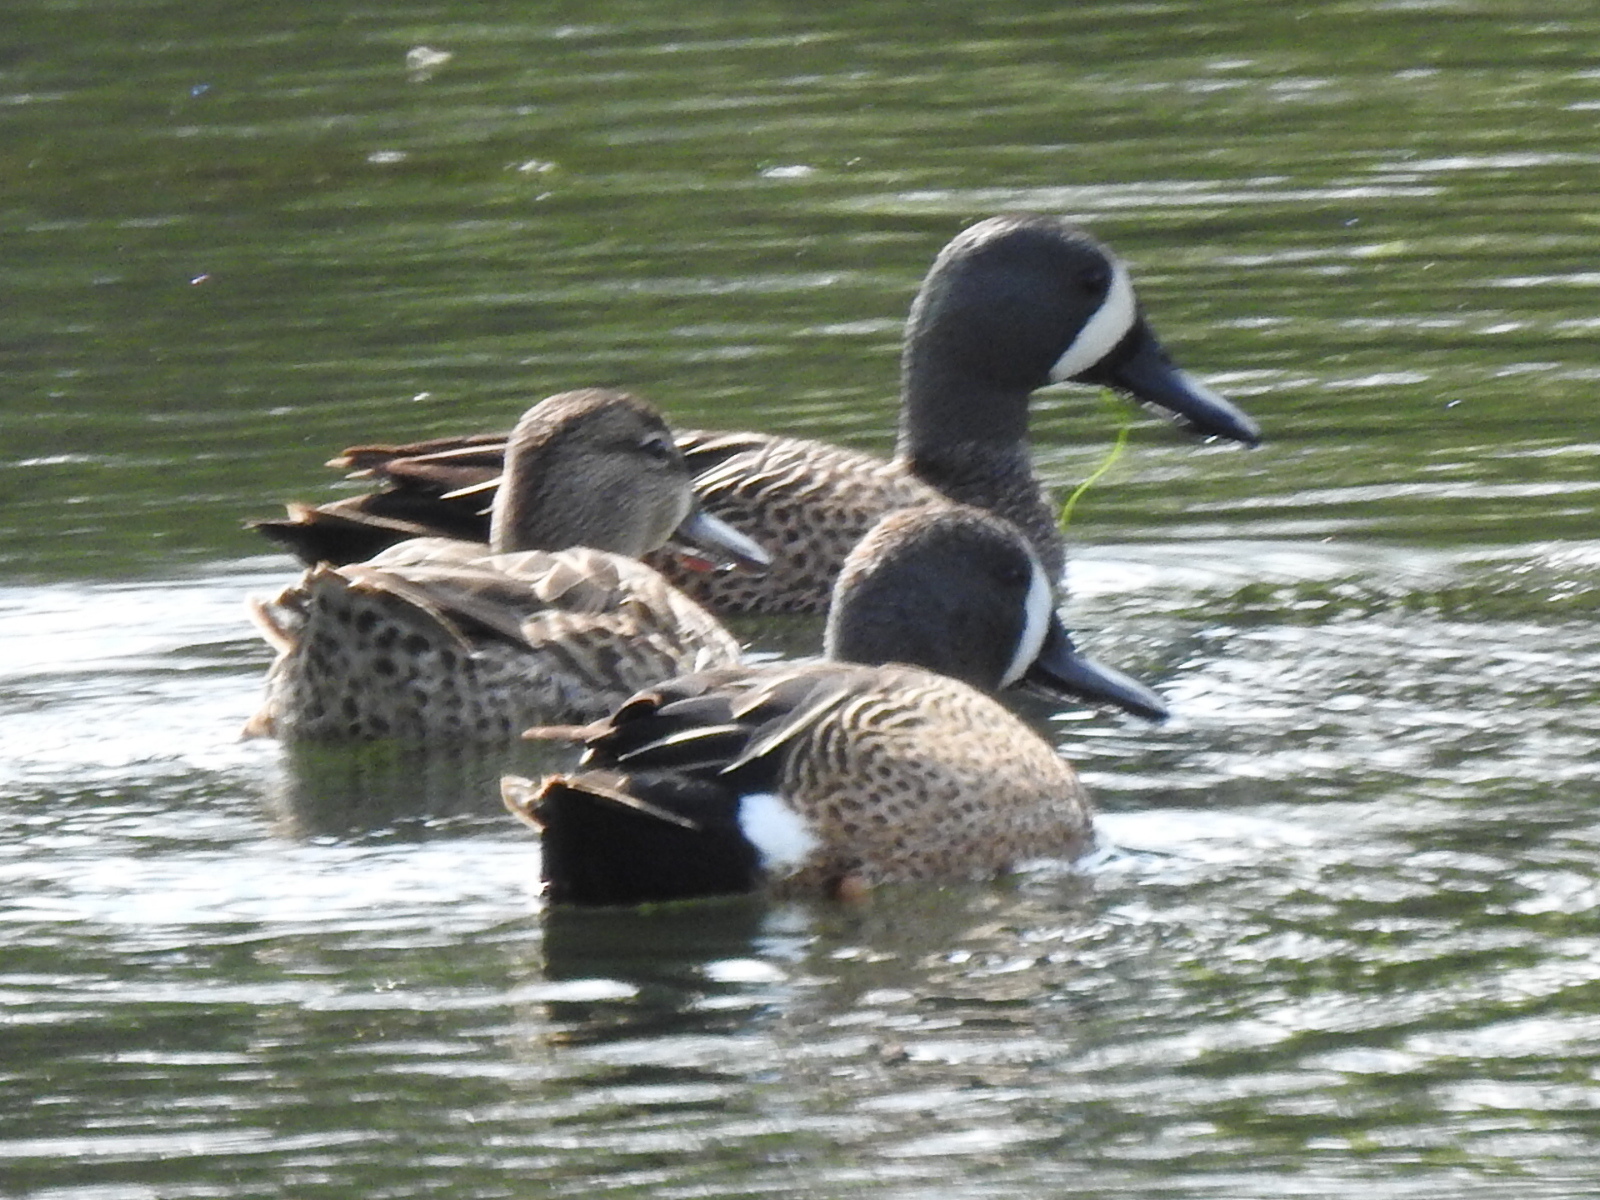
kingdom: Animalia
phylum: Chordata
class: Aves
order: Anseriformes
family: Anatidae
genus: Spatula
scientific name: Spatula discors
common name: Blue-winged teal
